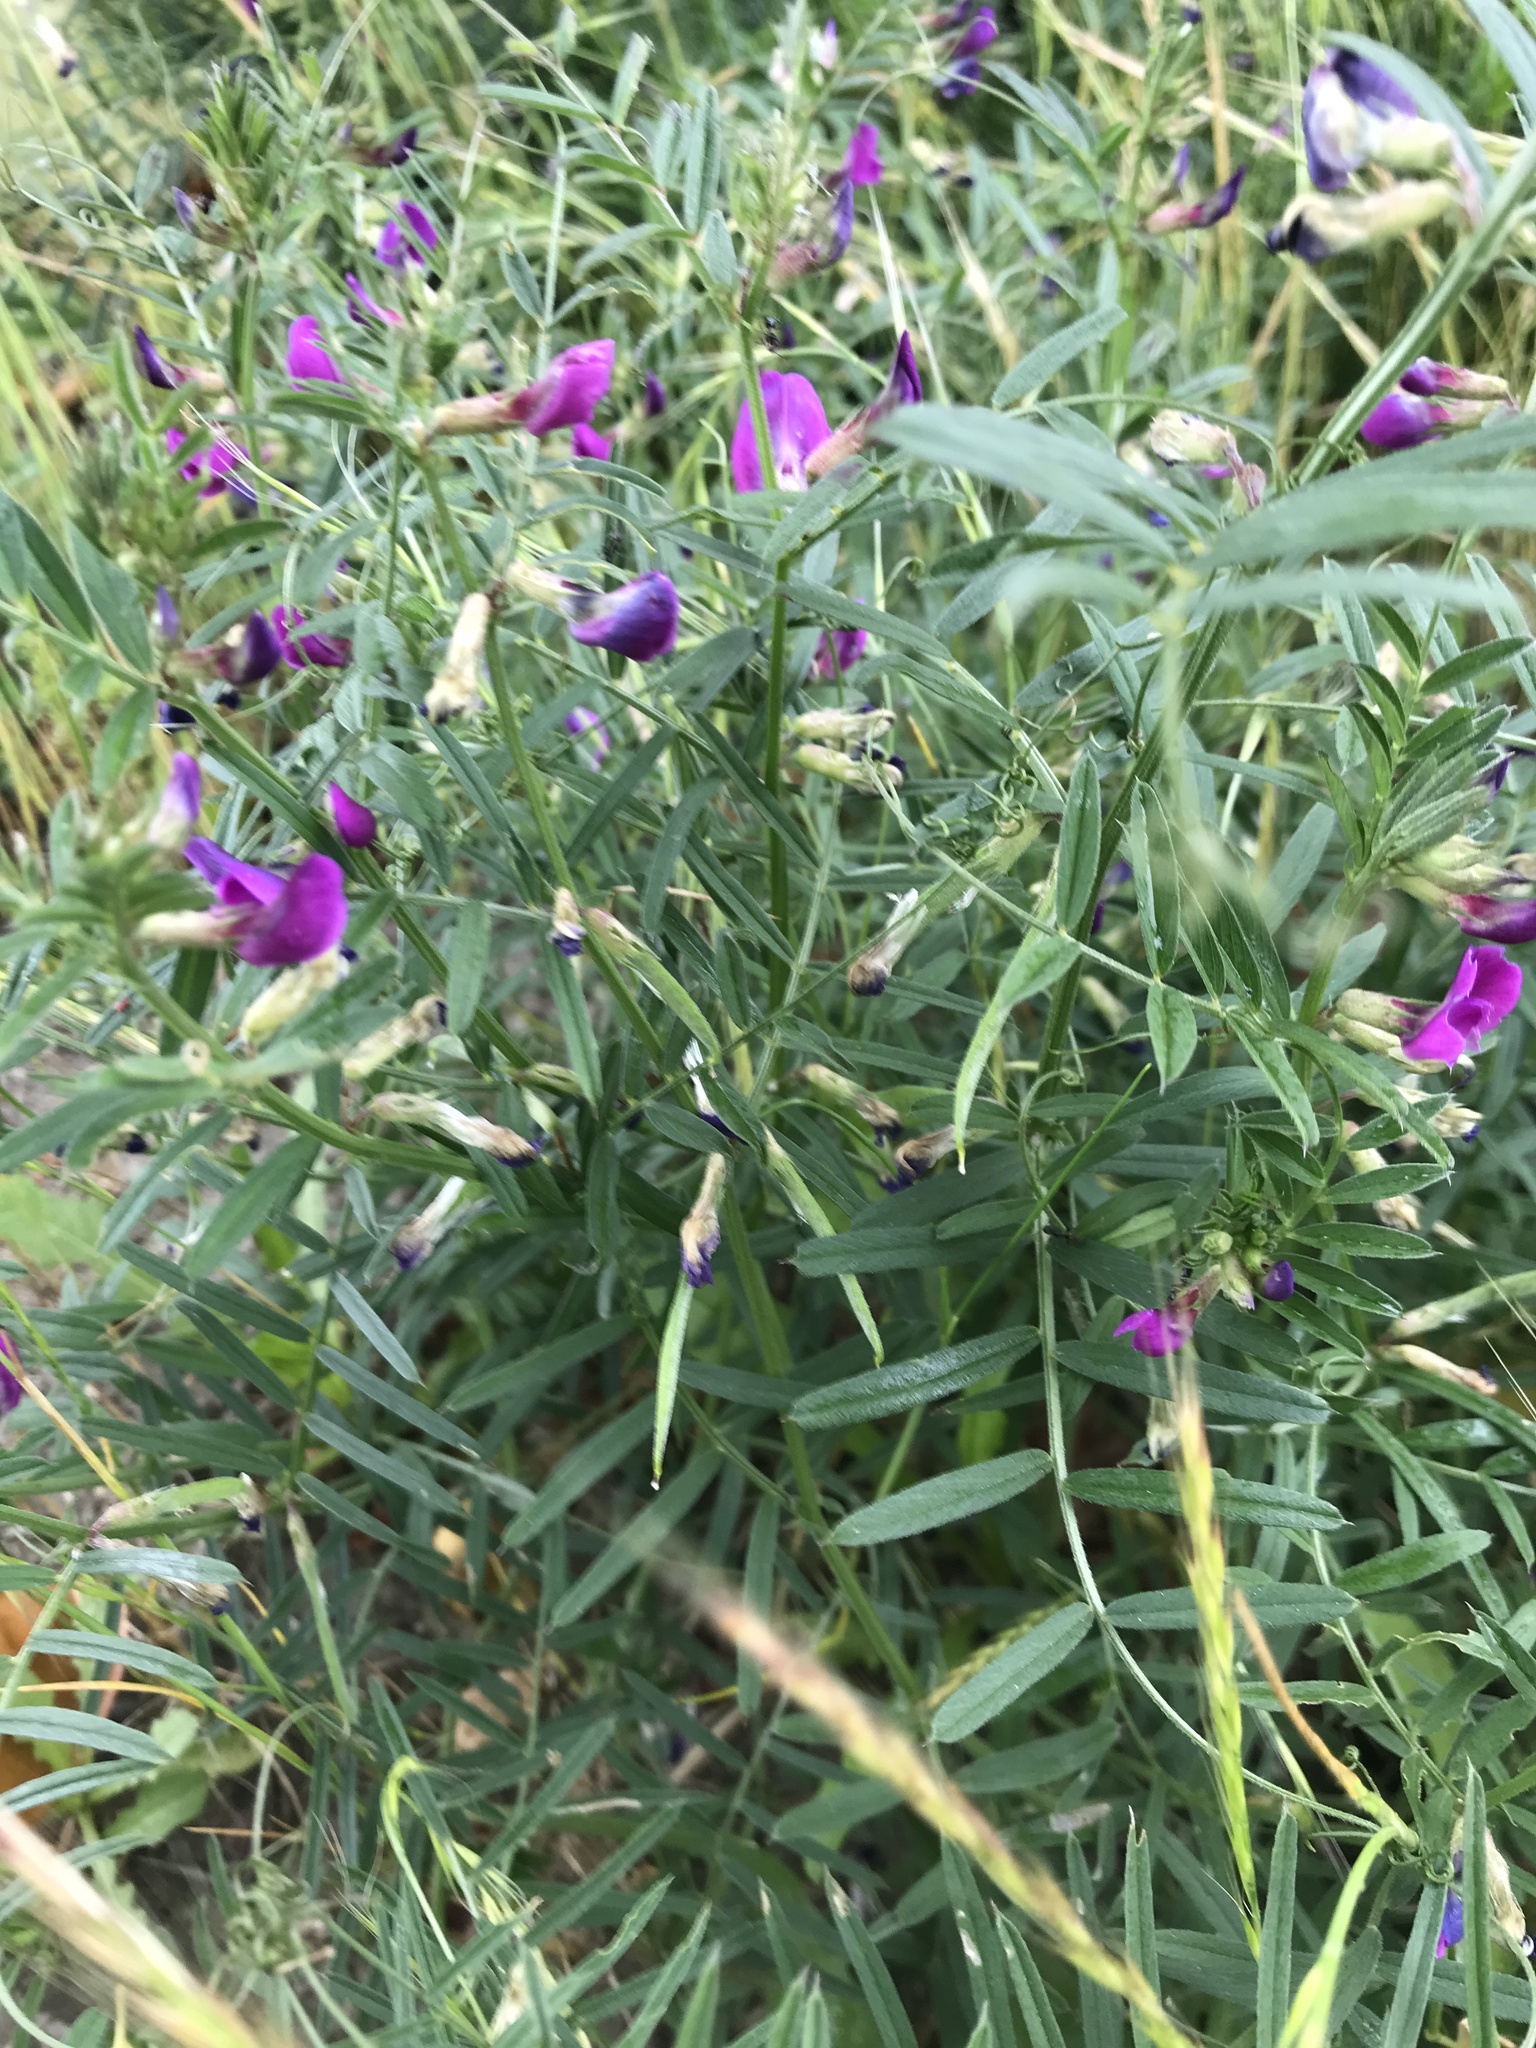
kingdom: Plantae
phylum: Tracheophyta
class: Magnoliopsida
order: Fabales
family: Fabaceae
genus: Vicia
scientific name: Vicia sativa
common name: Garden vetch
